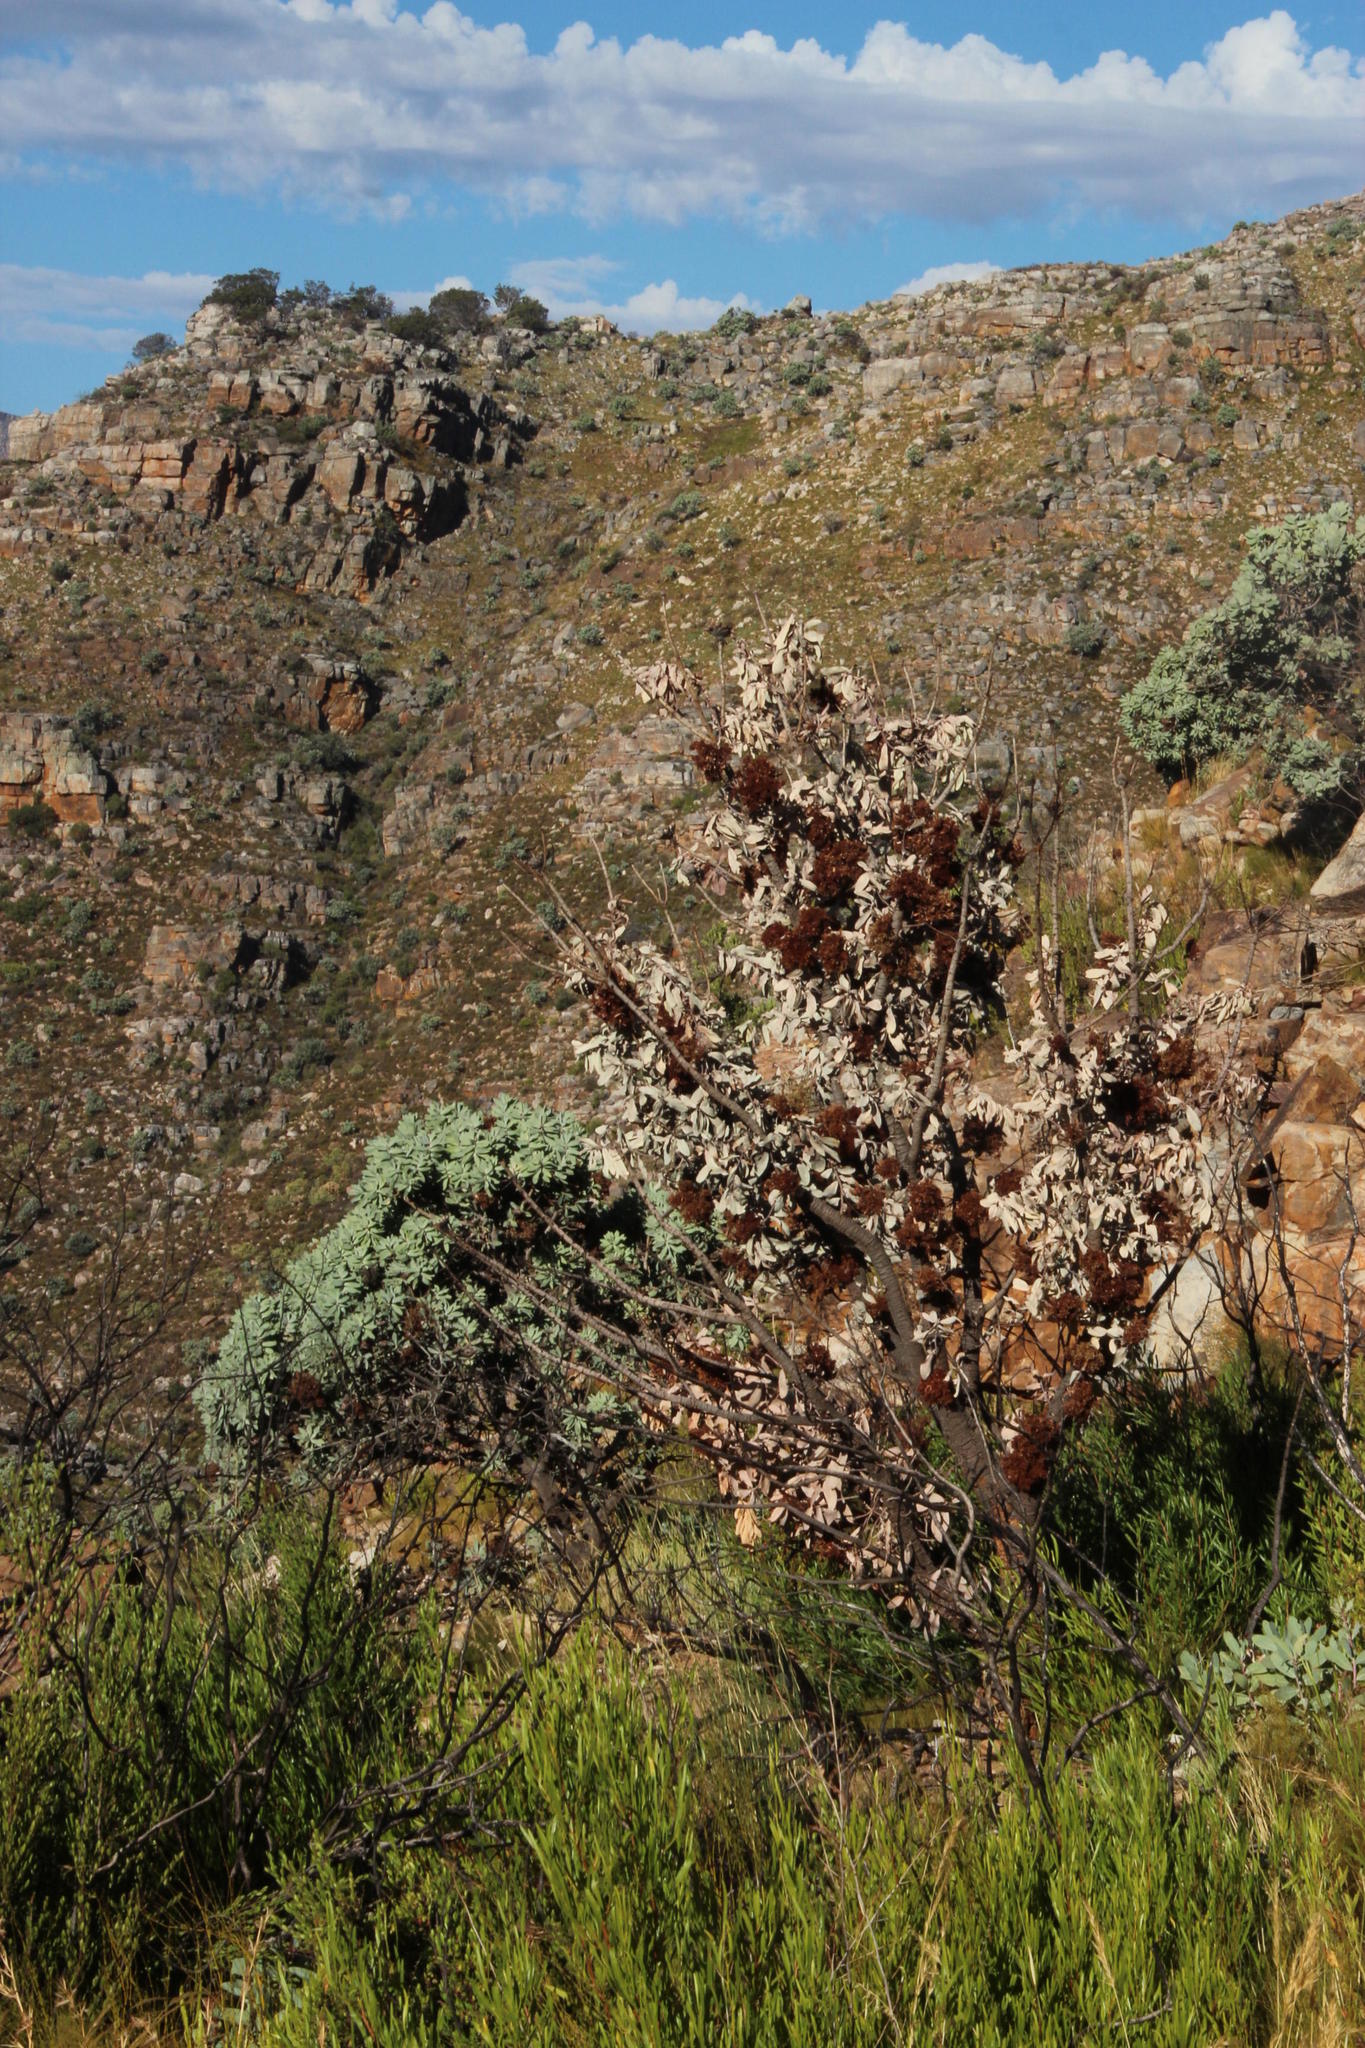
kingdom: Plantae
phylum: Tracheophyta
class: Magnoliopsida
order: Proteales
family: Proteaceae
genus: Protea
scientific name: Protea nitida
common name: Tree protea
